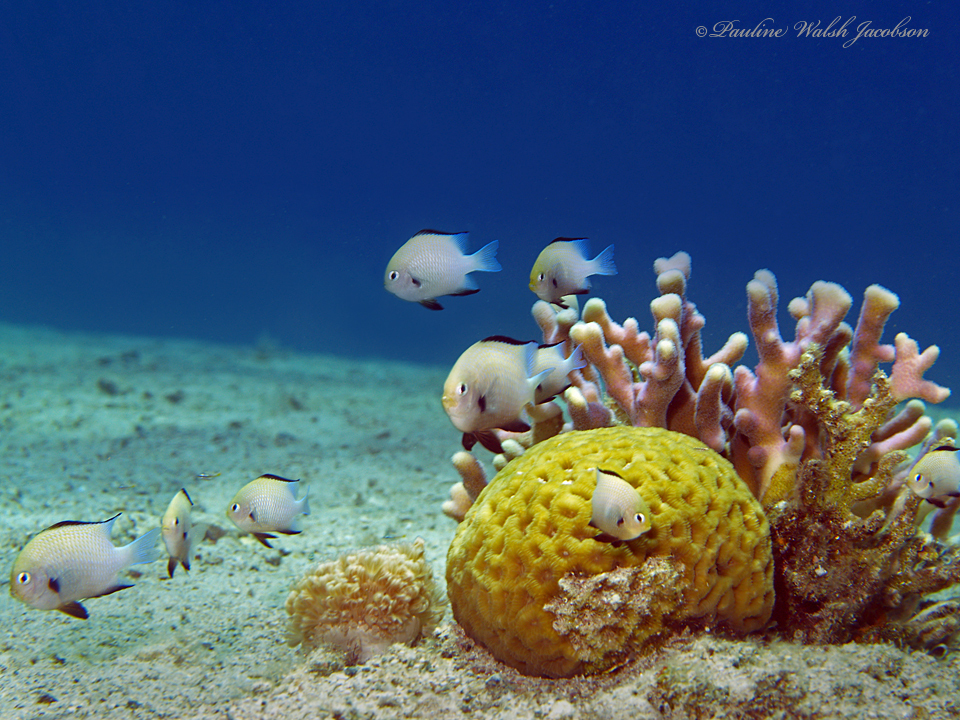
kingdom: Animalia
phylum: Chordata
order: Perciformes
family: Pomacentridae
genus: Dascyllus
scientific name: Dascyllus marginatus
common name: Red sea dascyllus
